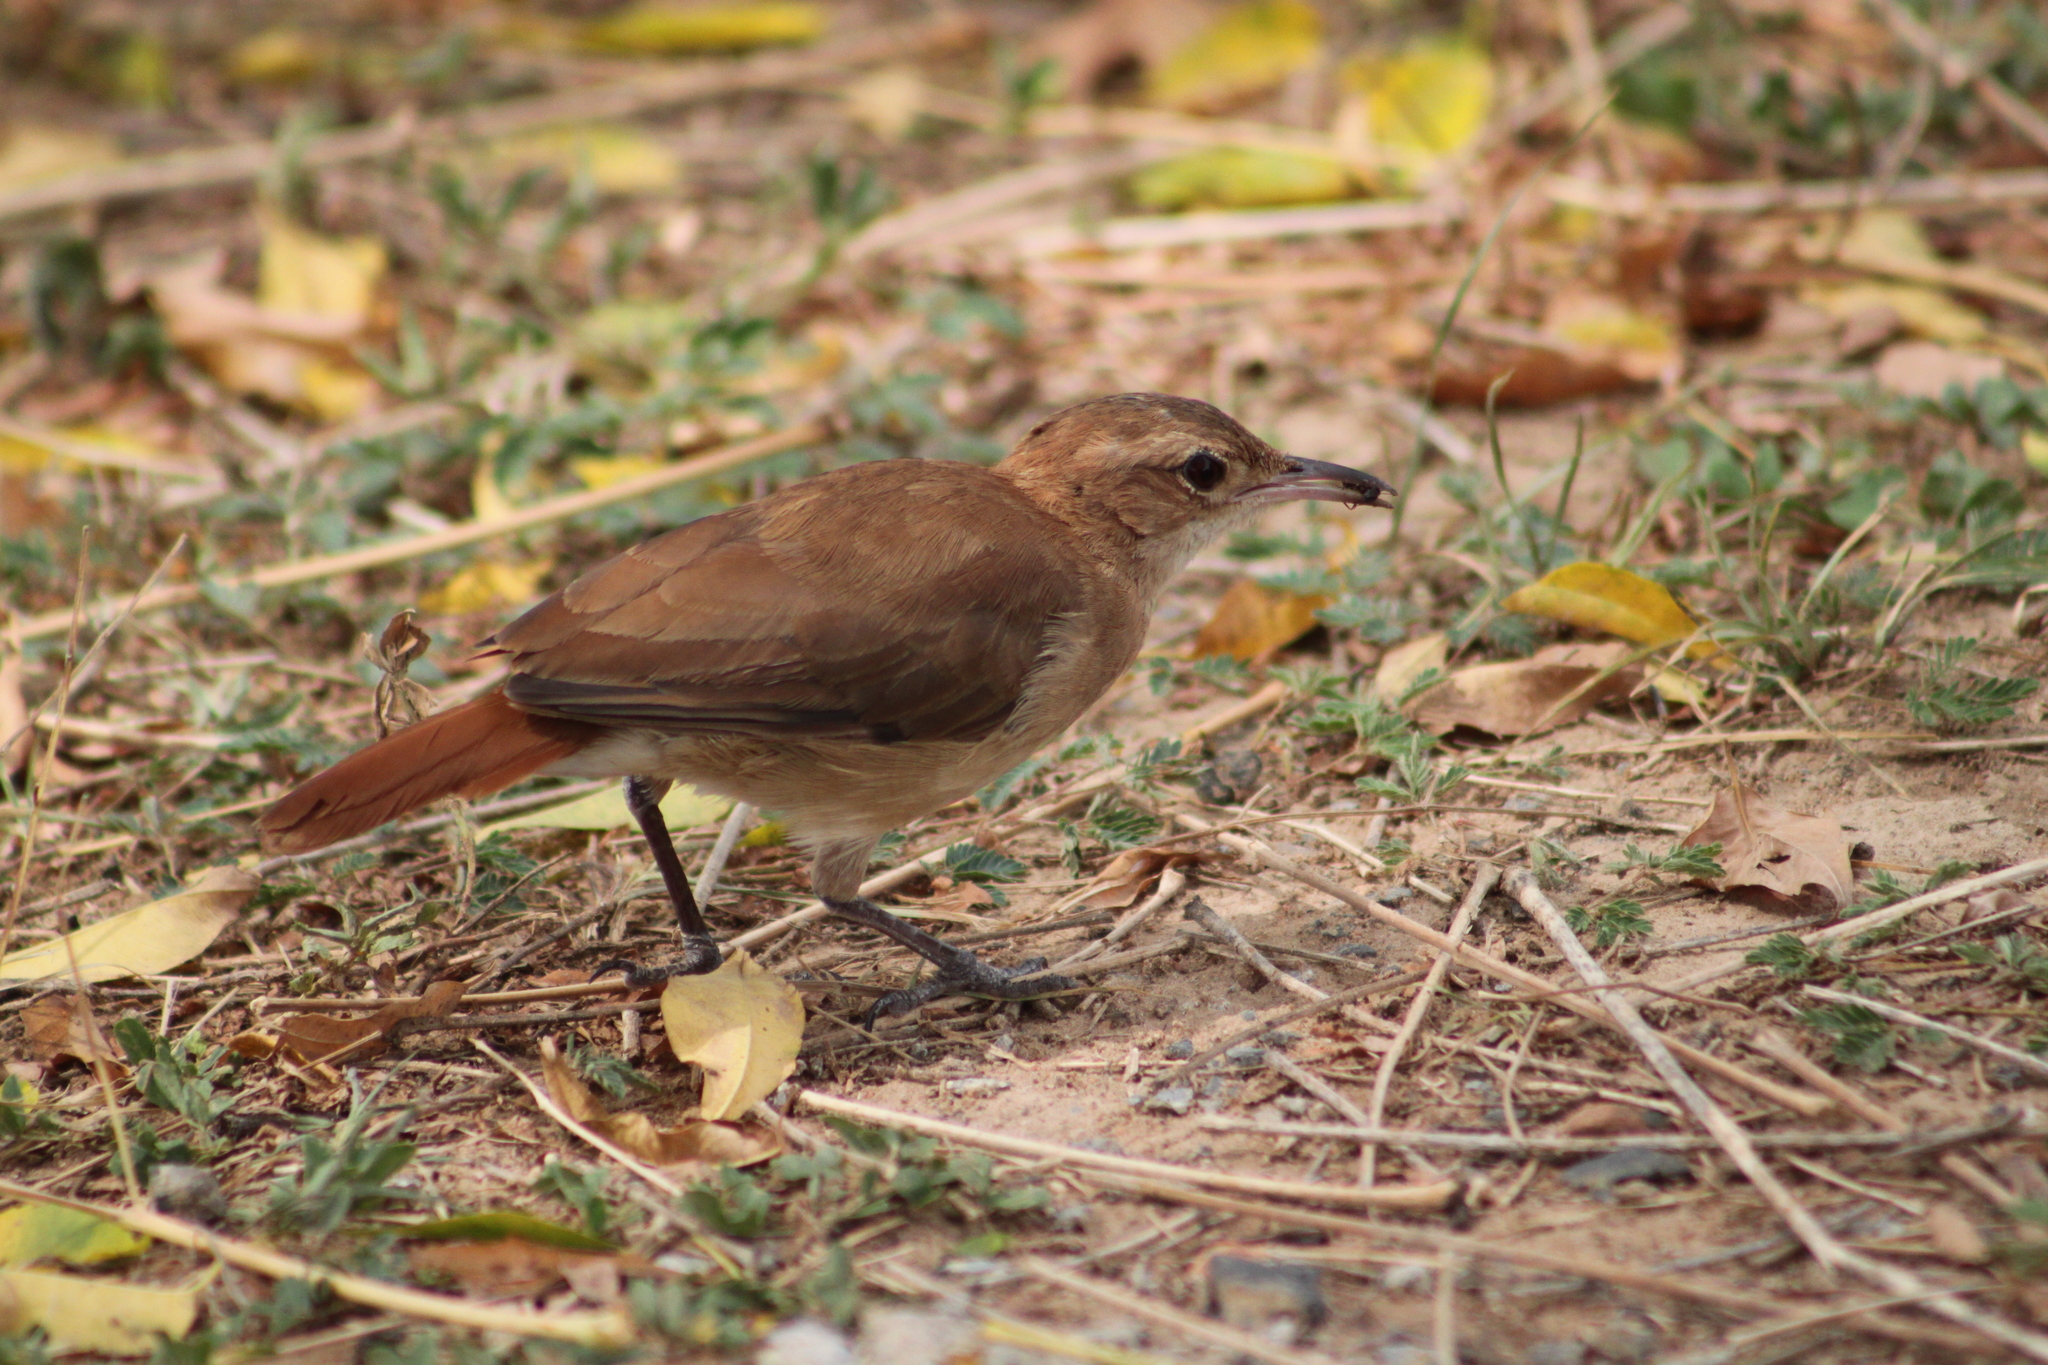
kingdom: Animalia
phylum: Chordata
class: Aves
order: Passeriformes
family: Furnariidae
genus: Furnarius
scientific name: Furnarius rufus
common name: Rufous hornero
